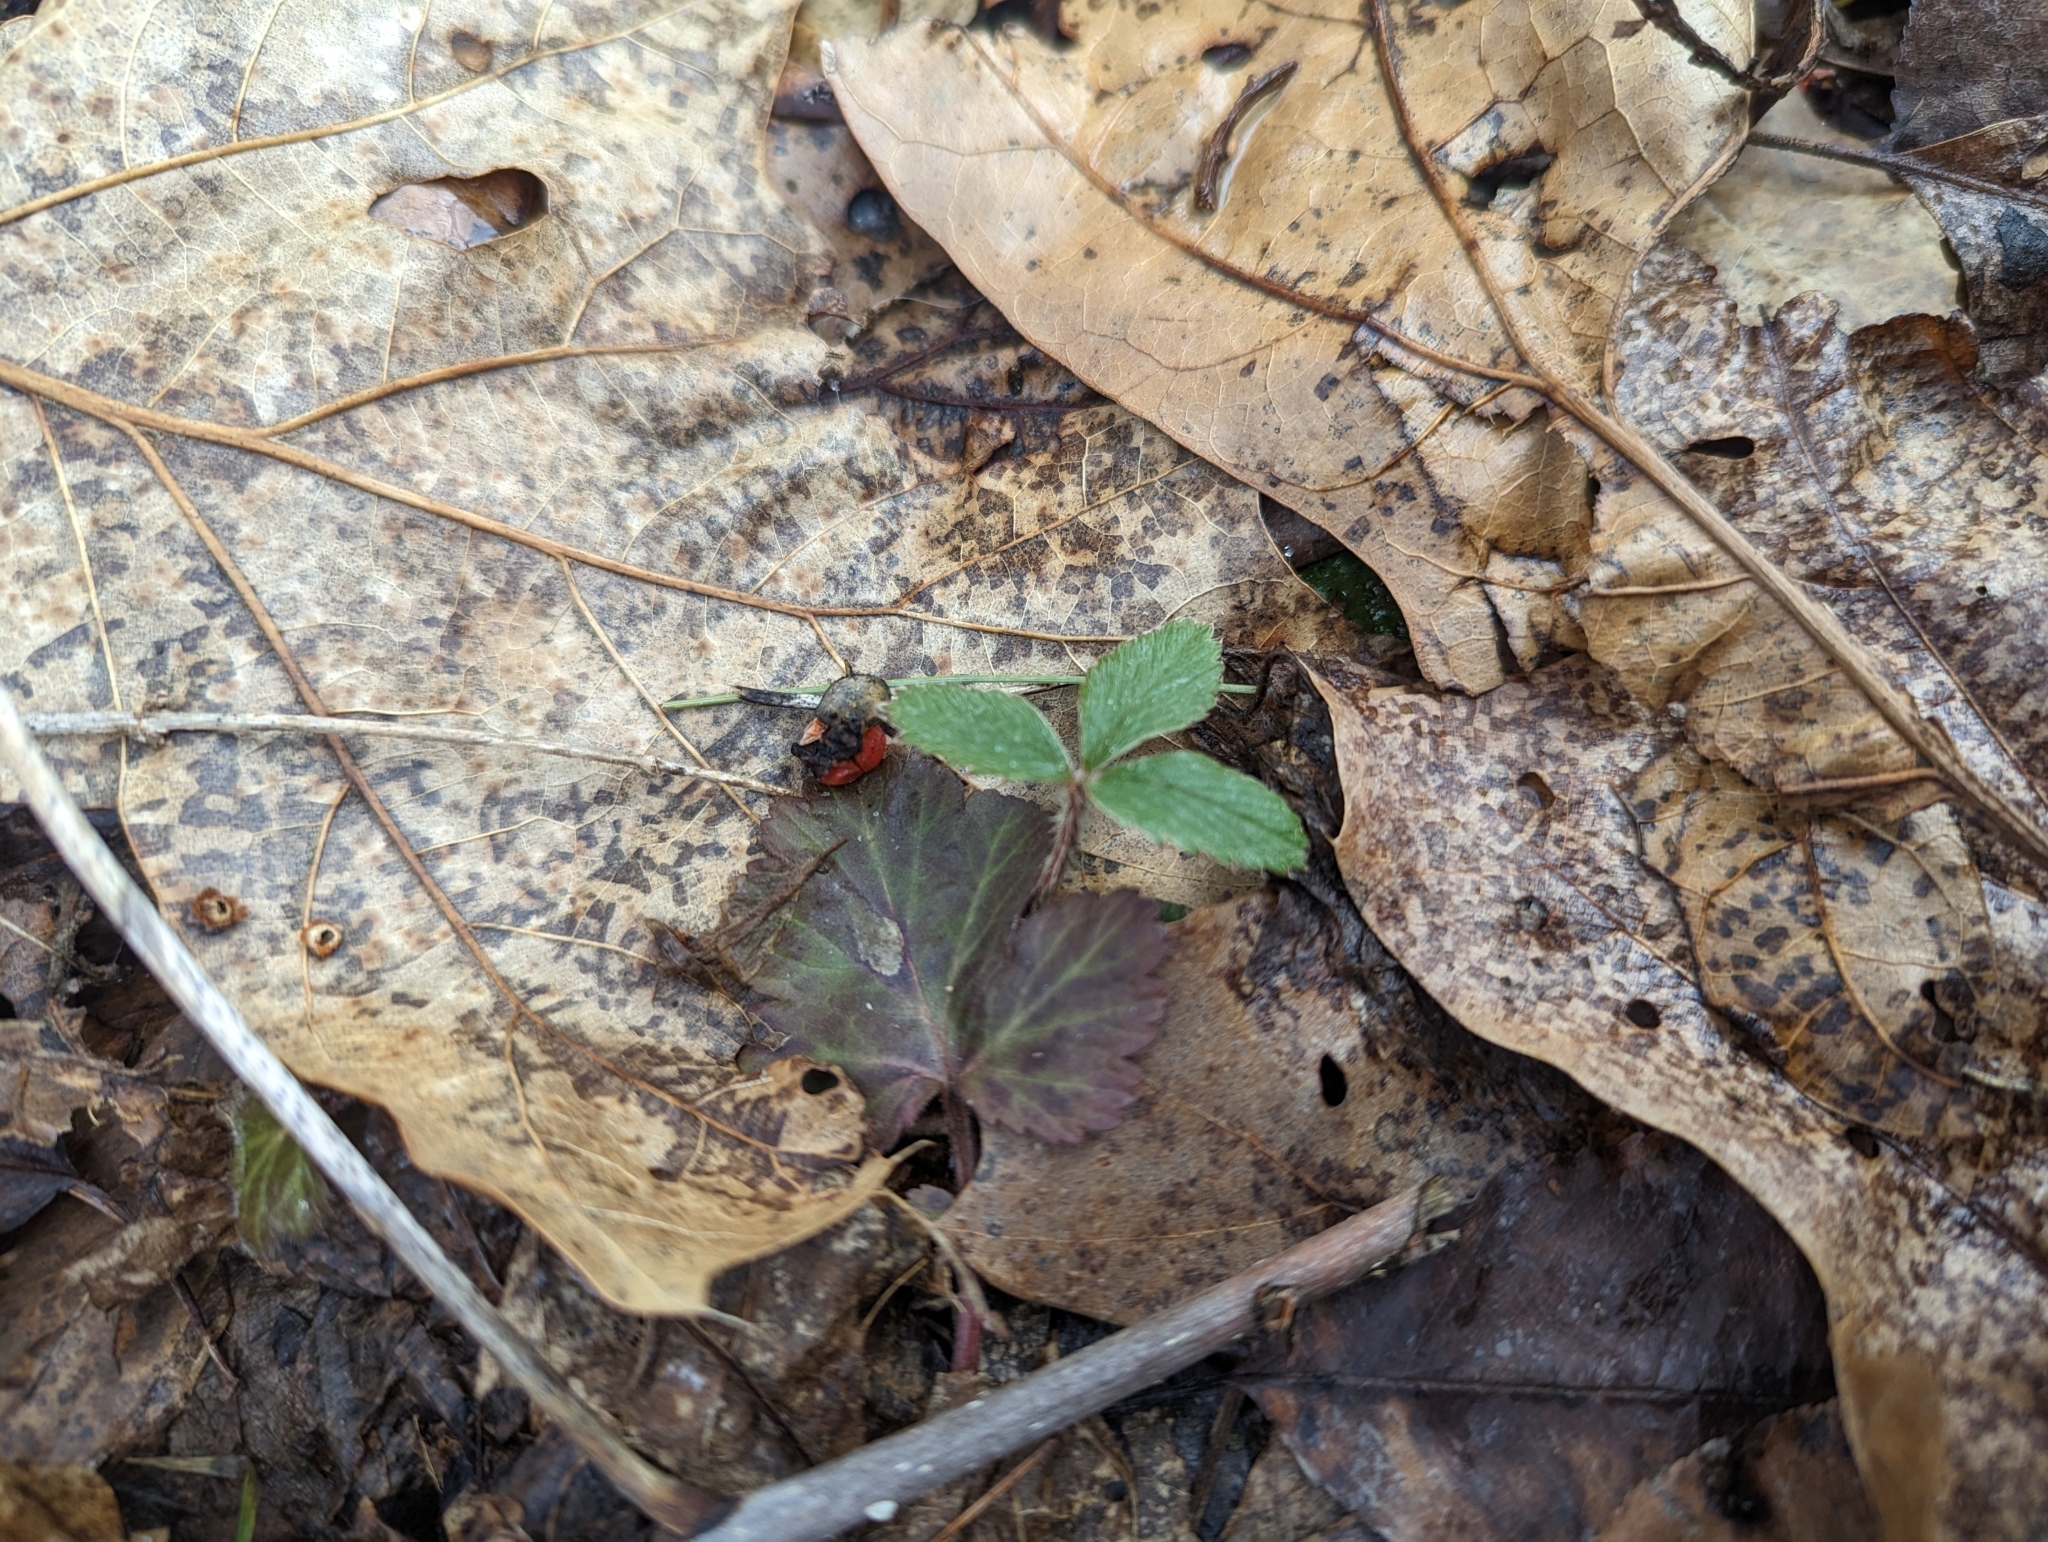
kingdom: Plantae
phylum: Tracheophyta
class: Magnoliopsida
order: Rosales
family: Rosaceae
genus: Fragaria
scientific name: Fragaria virginiana
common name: Thickleaved wild strawberry
